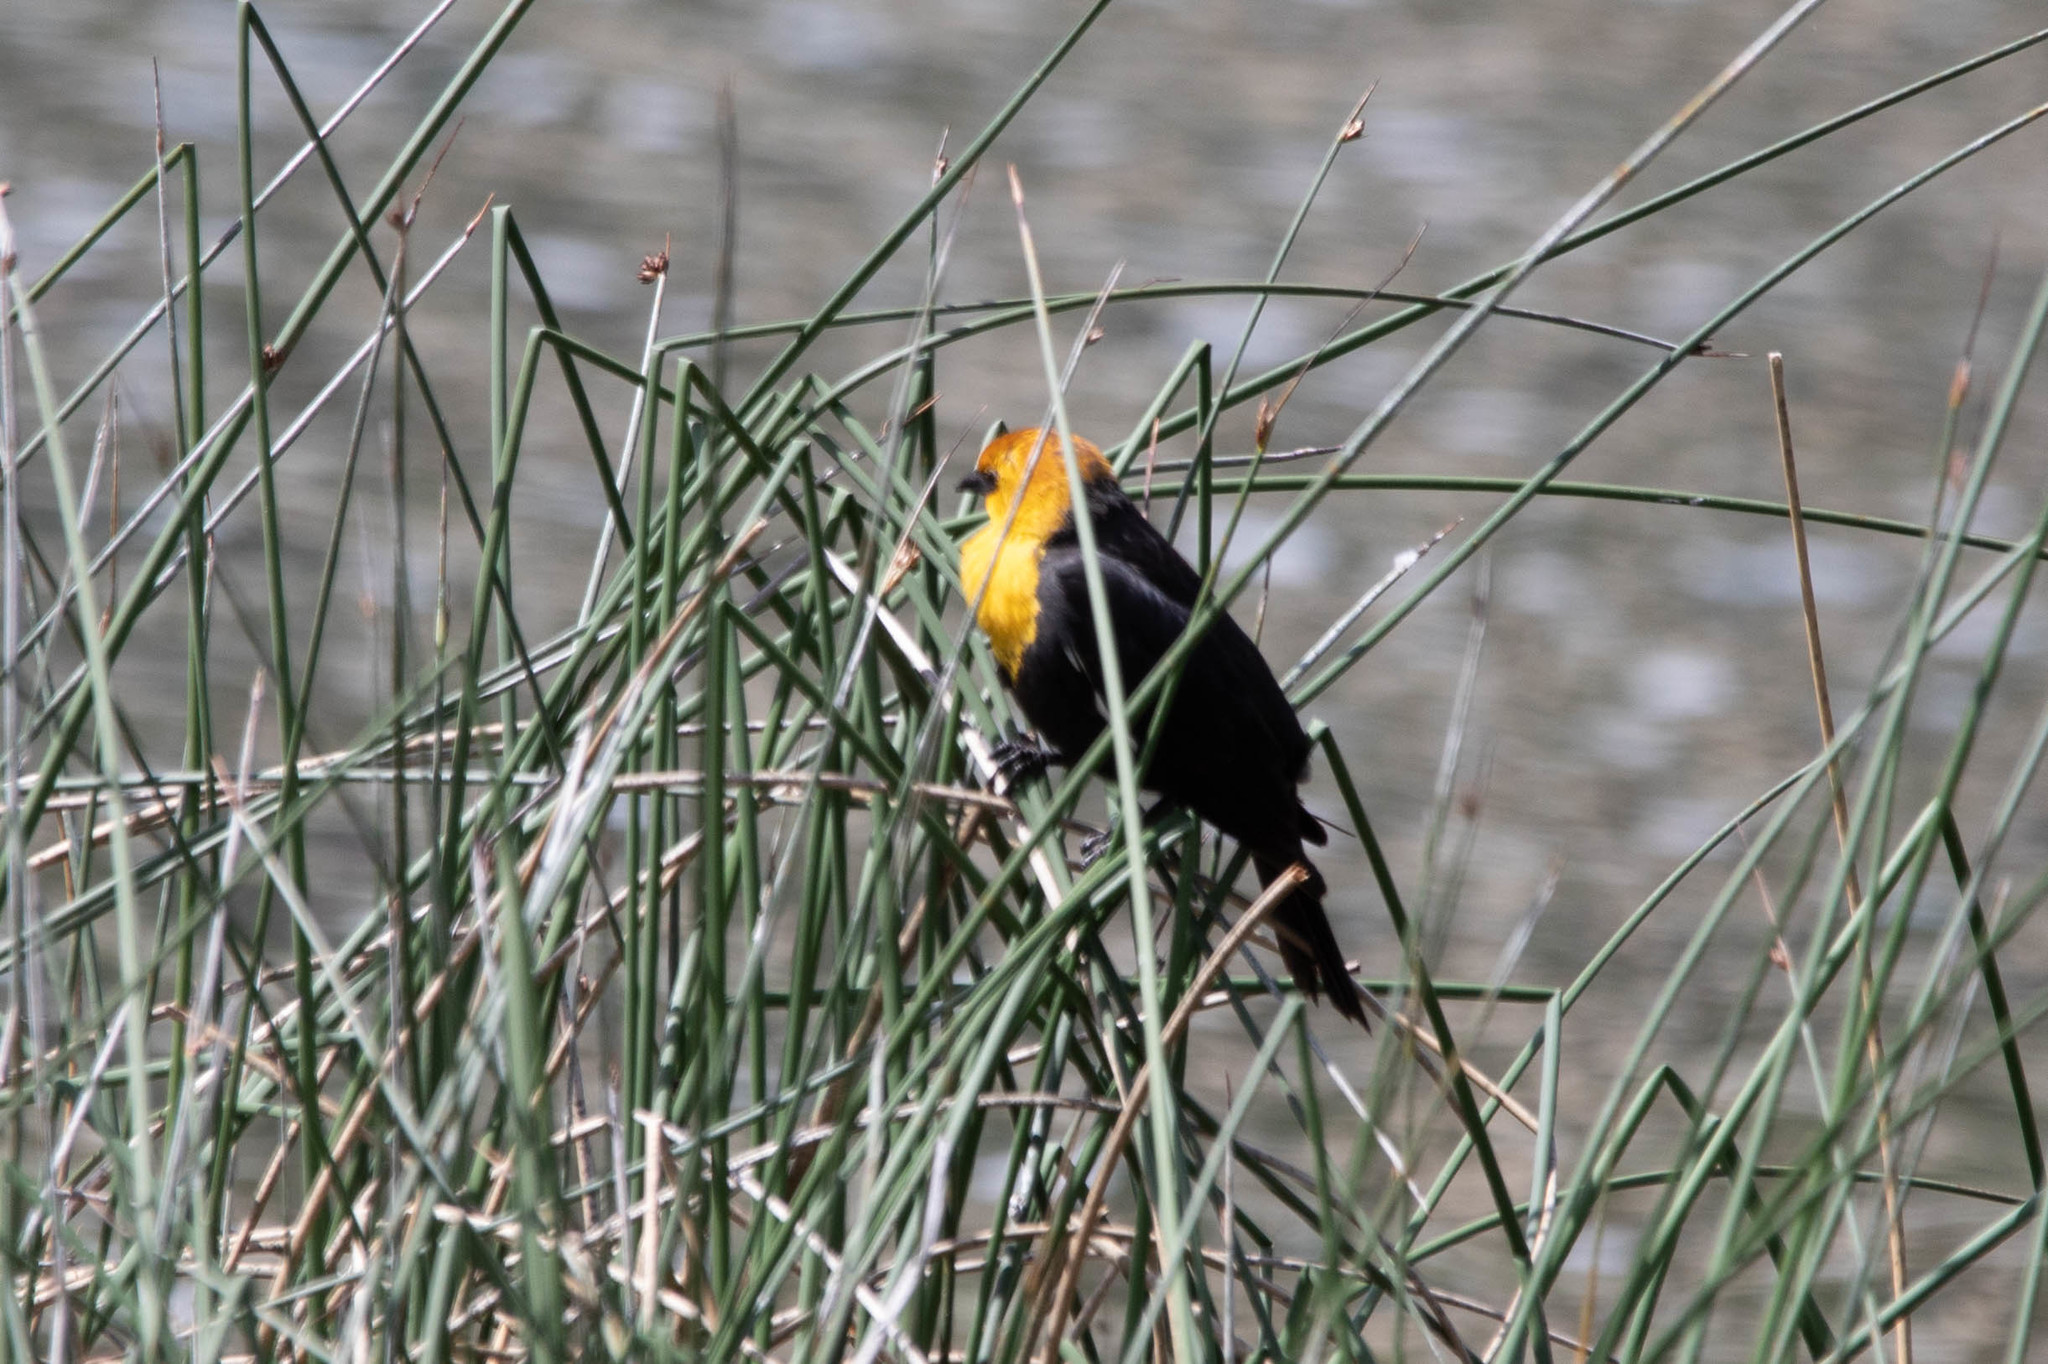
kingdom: Animalia
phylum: Chordata
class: Aves
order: Passeriformes
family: Icteridae
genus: Xanthocephalus
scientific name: Xanthocephalus xanthocephalus
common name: Yellow-headed blackbird
